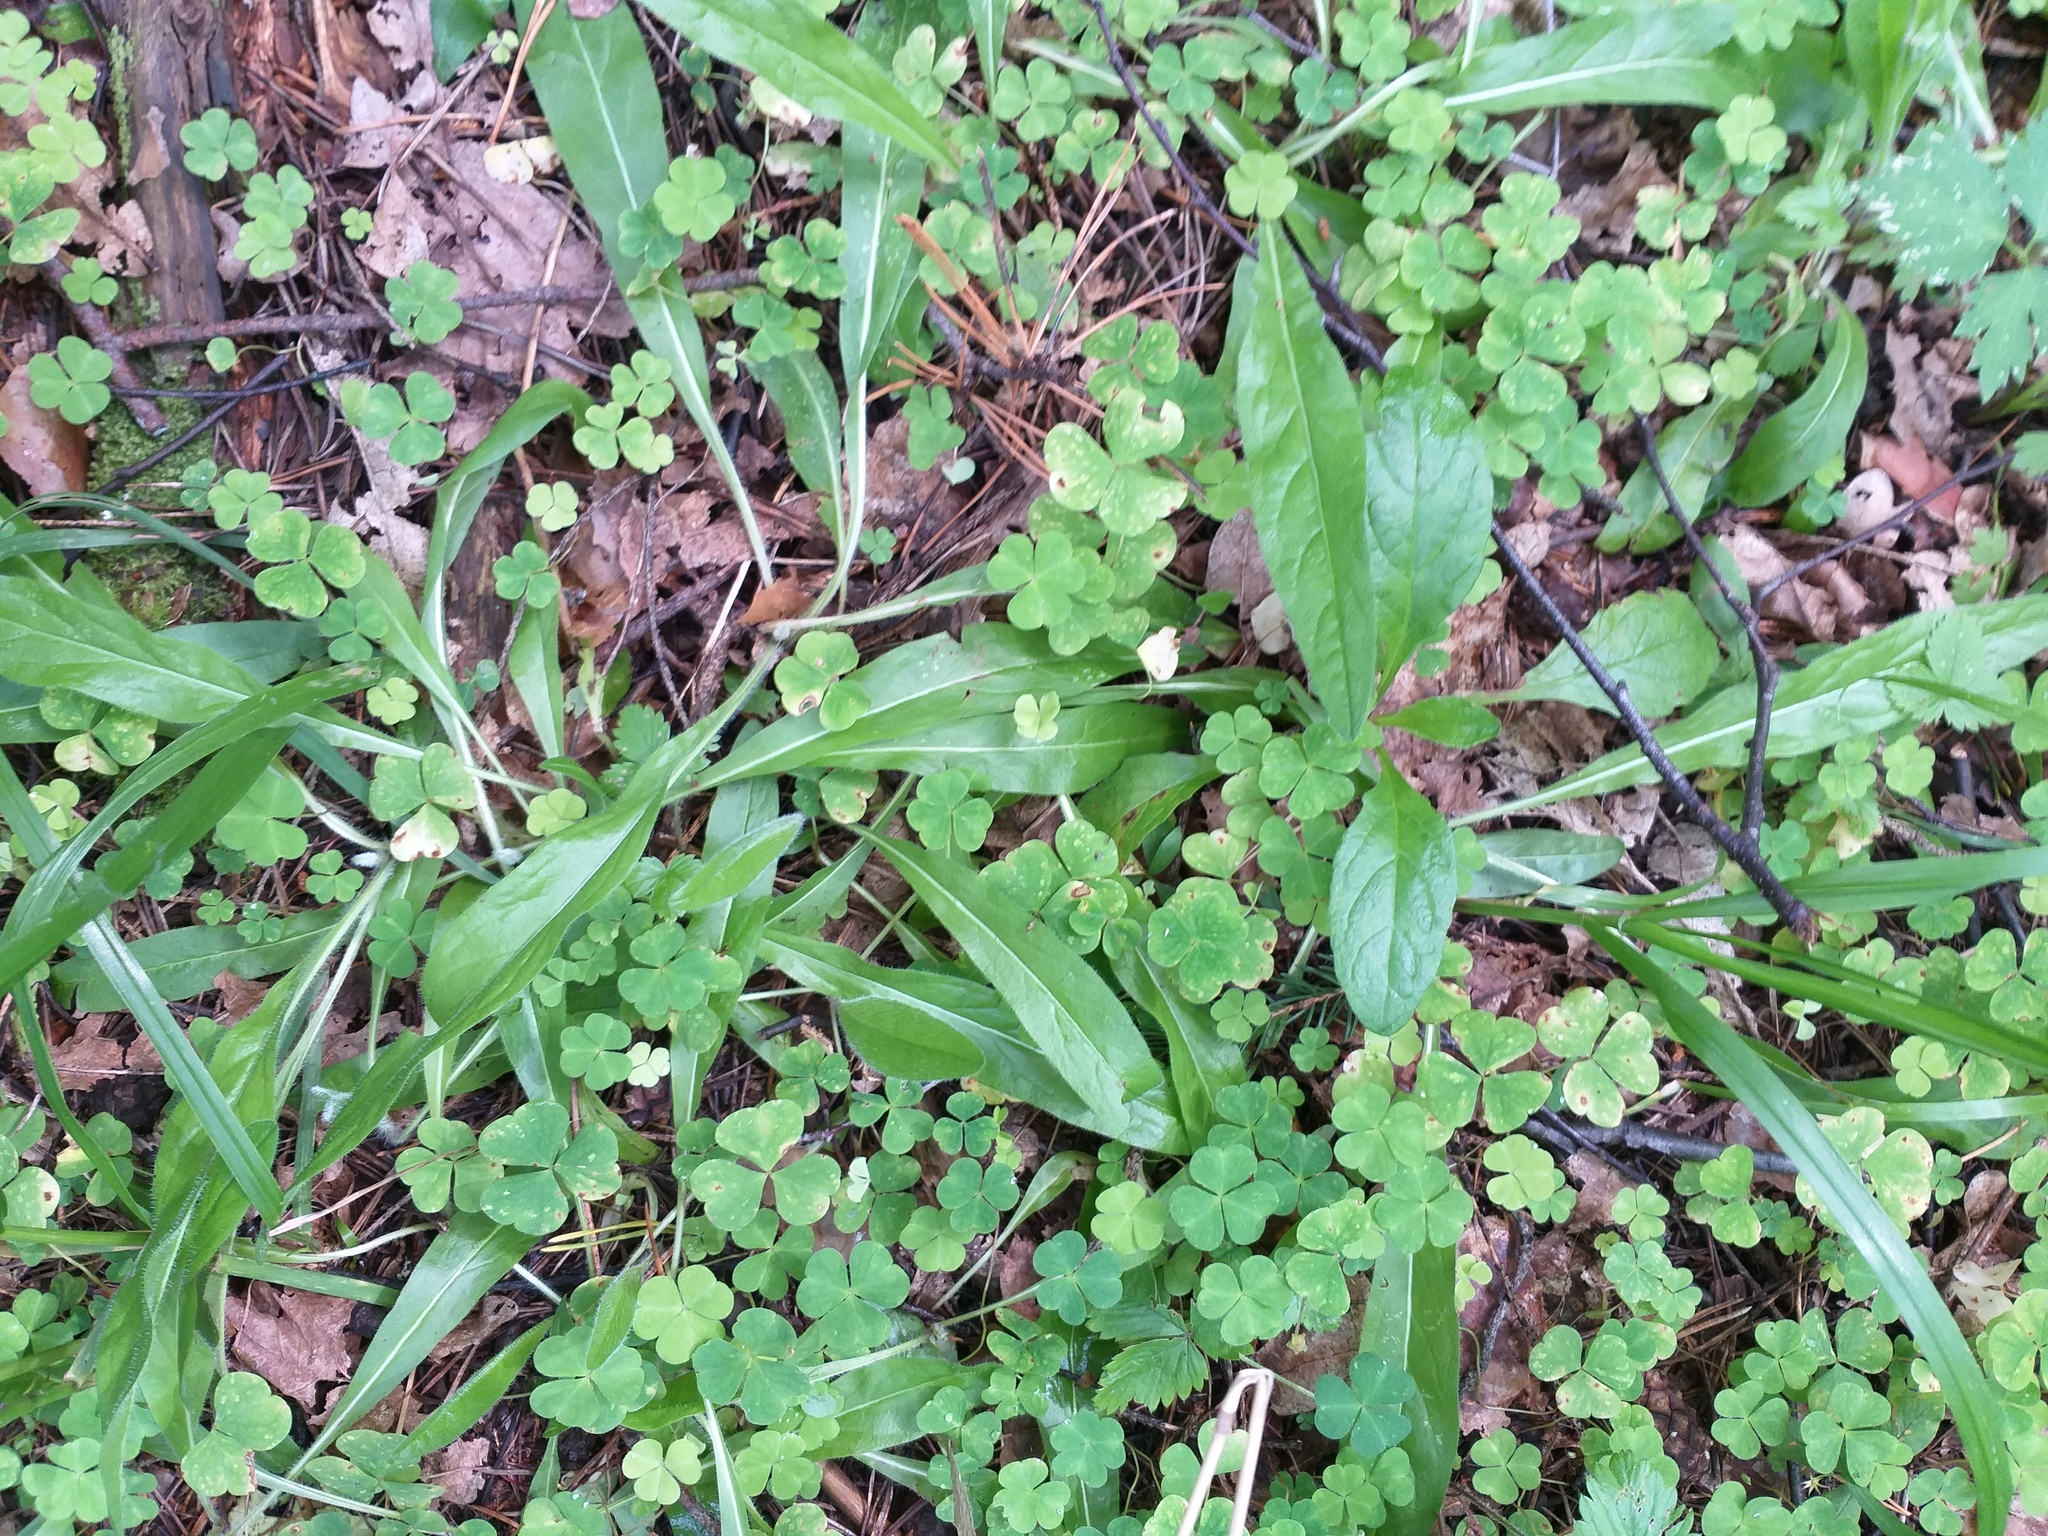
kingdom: Plantae
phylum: Tracheophyta
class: Magnoliopsida
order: Asterales
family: Asteraceae
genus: Pilosella
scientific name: Pilosella onegensis
